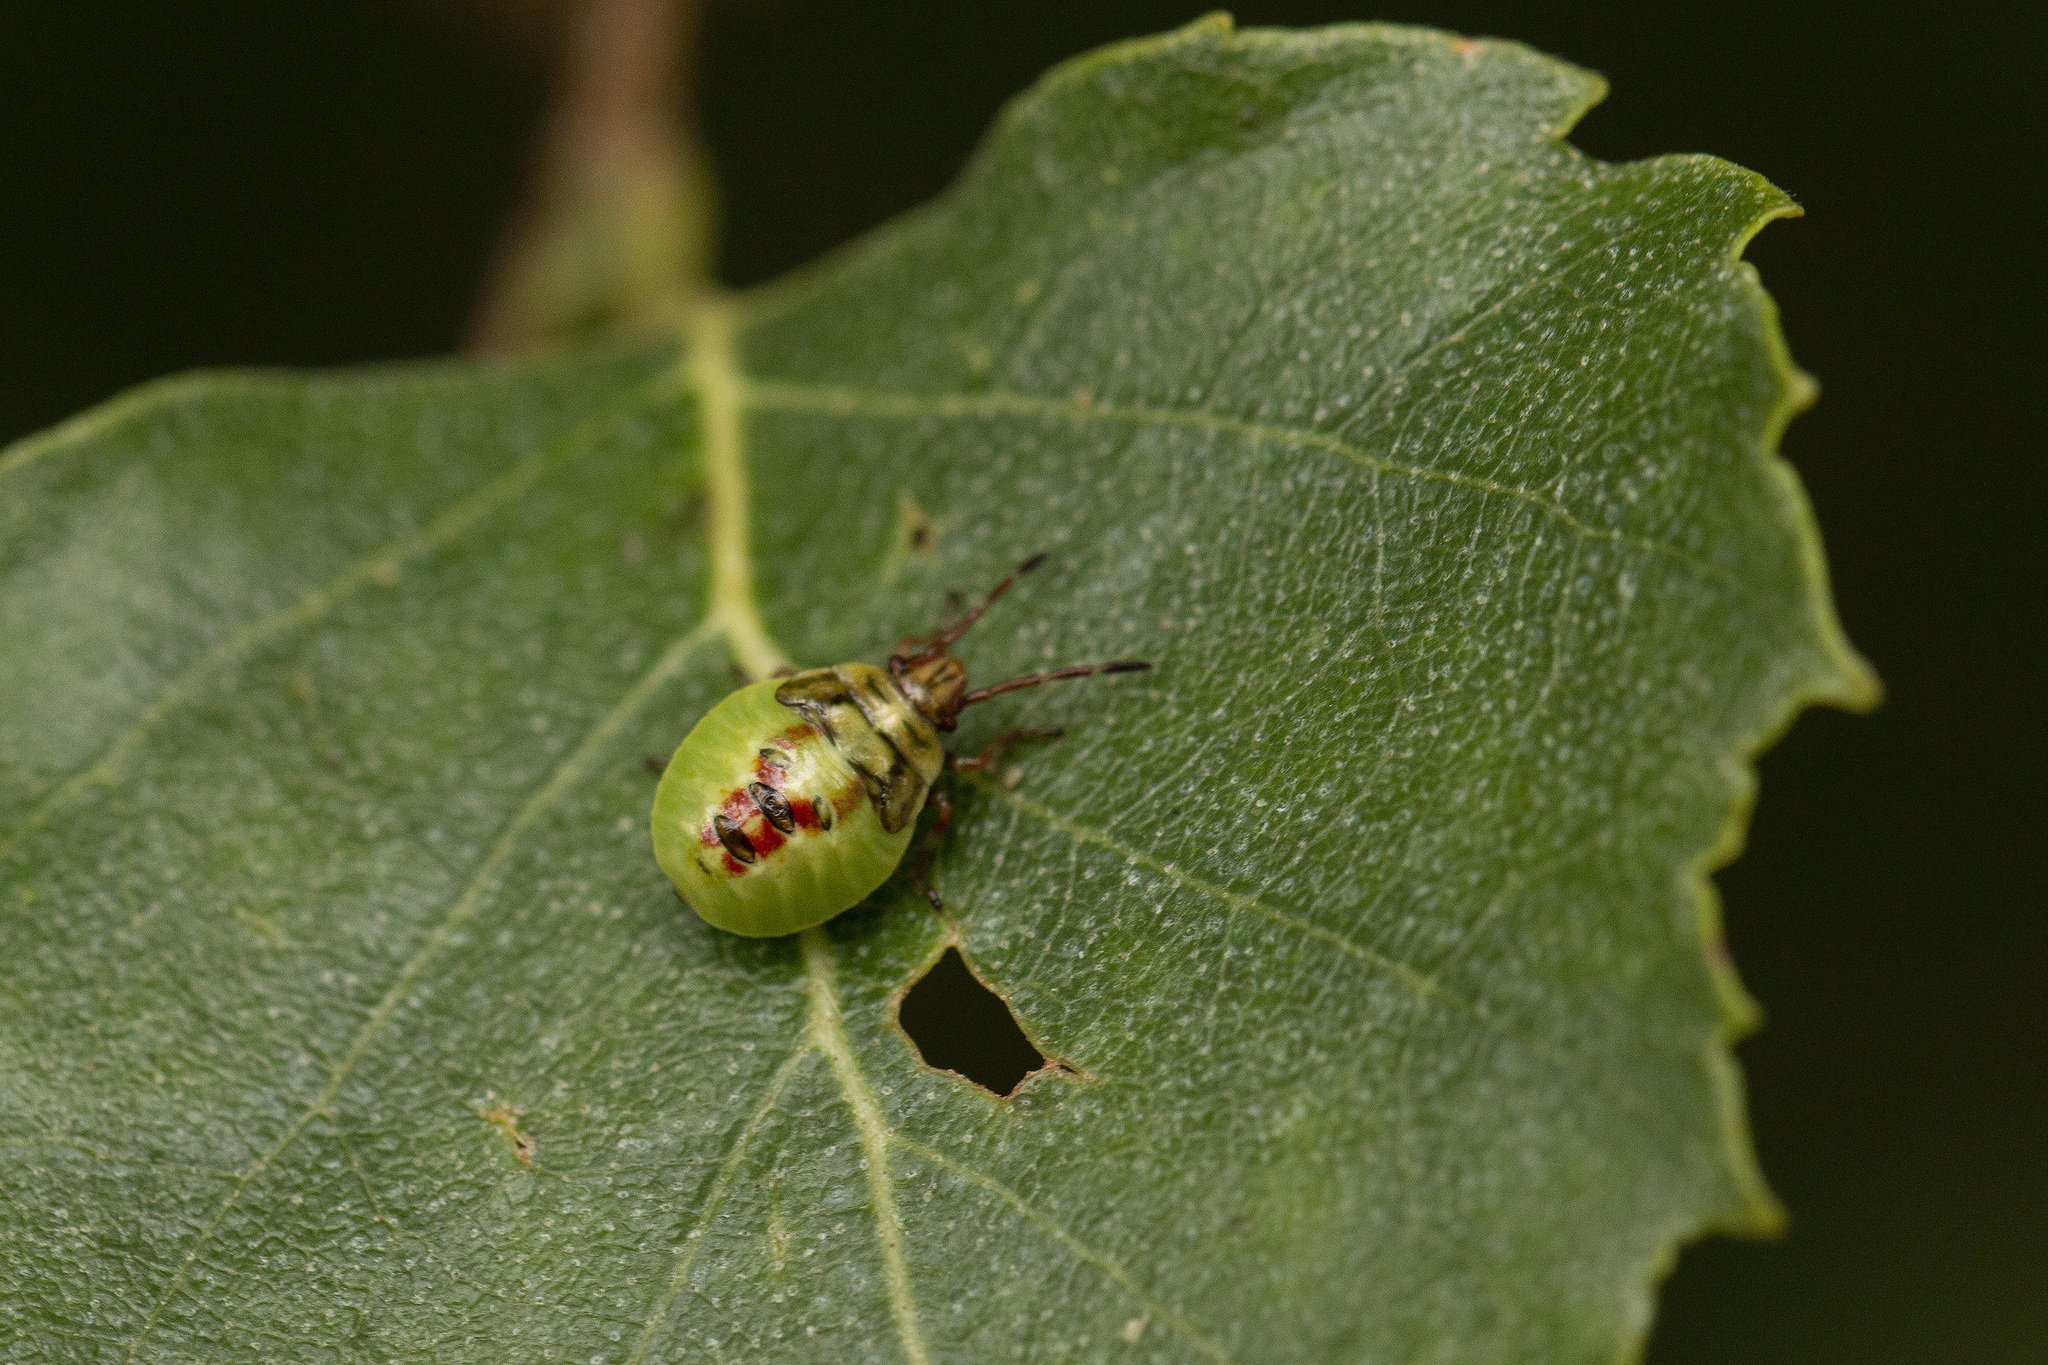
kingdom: Animalia
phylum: Arthropoda
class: Insecta
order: Hemiptera
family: Acanthosomatidae
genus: Cyphostethus
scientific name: Cyphostethus tristriatus
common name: Juniper shieldbug
